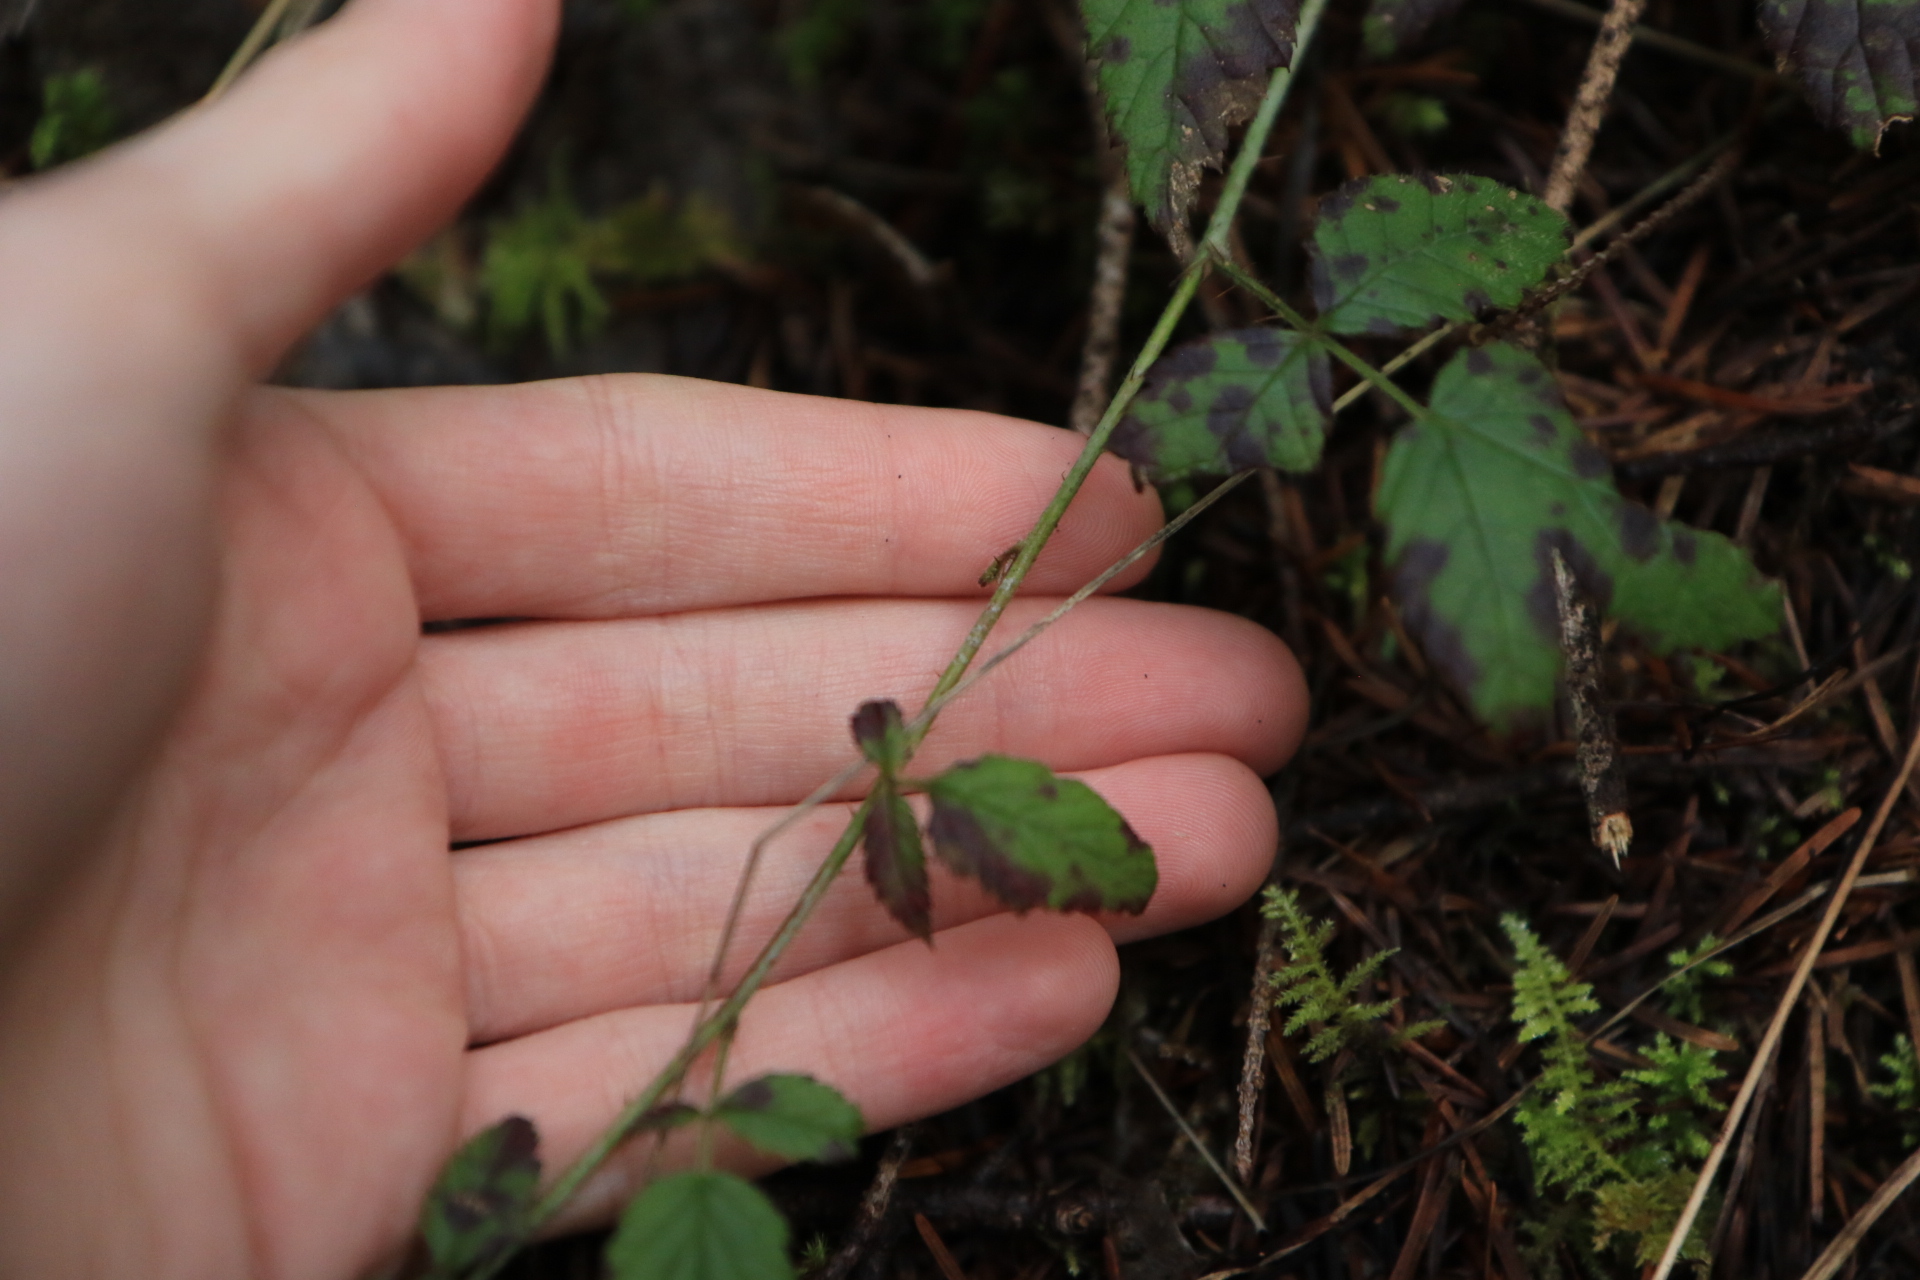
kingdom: Plantae
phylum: Tracheophyta
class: Magnoliopsida
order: Rosales
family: Rosaceae
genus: Rubus
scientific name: Rubus ursinus
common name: Pacific blackberry
